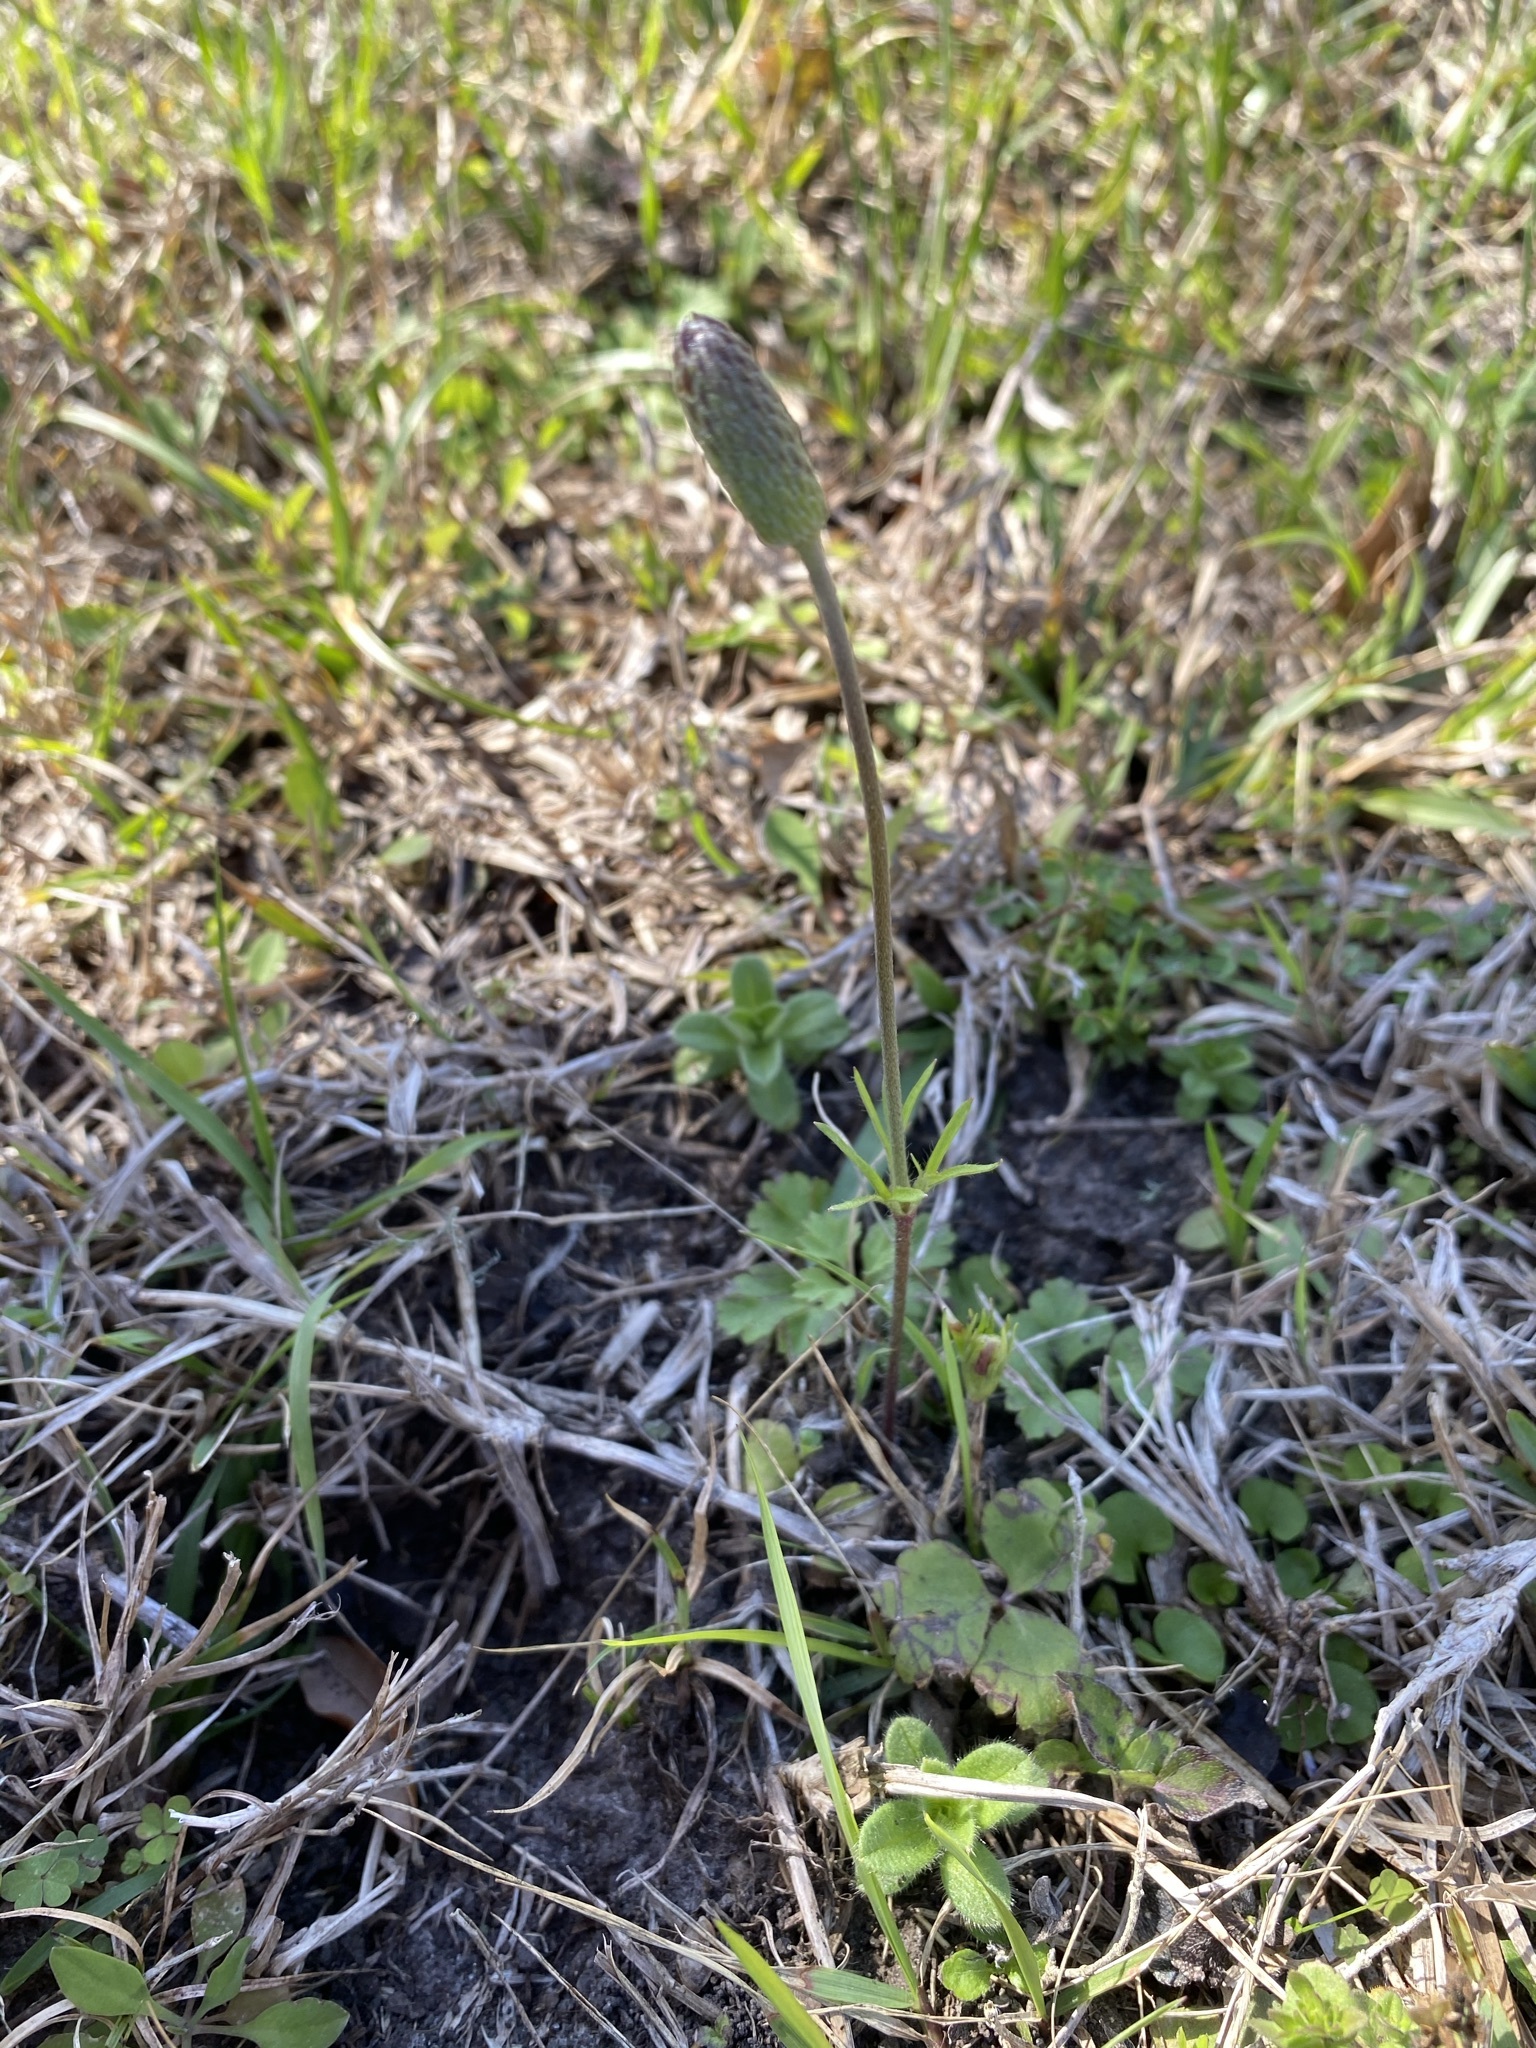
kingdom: Plantae
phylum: Tracheophyta
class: Magnoliopsida
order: Ranunculales
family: Ranunculaceae
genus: Anemone
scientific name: Anemone berlandieri
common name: Ten-petal anemone
